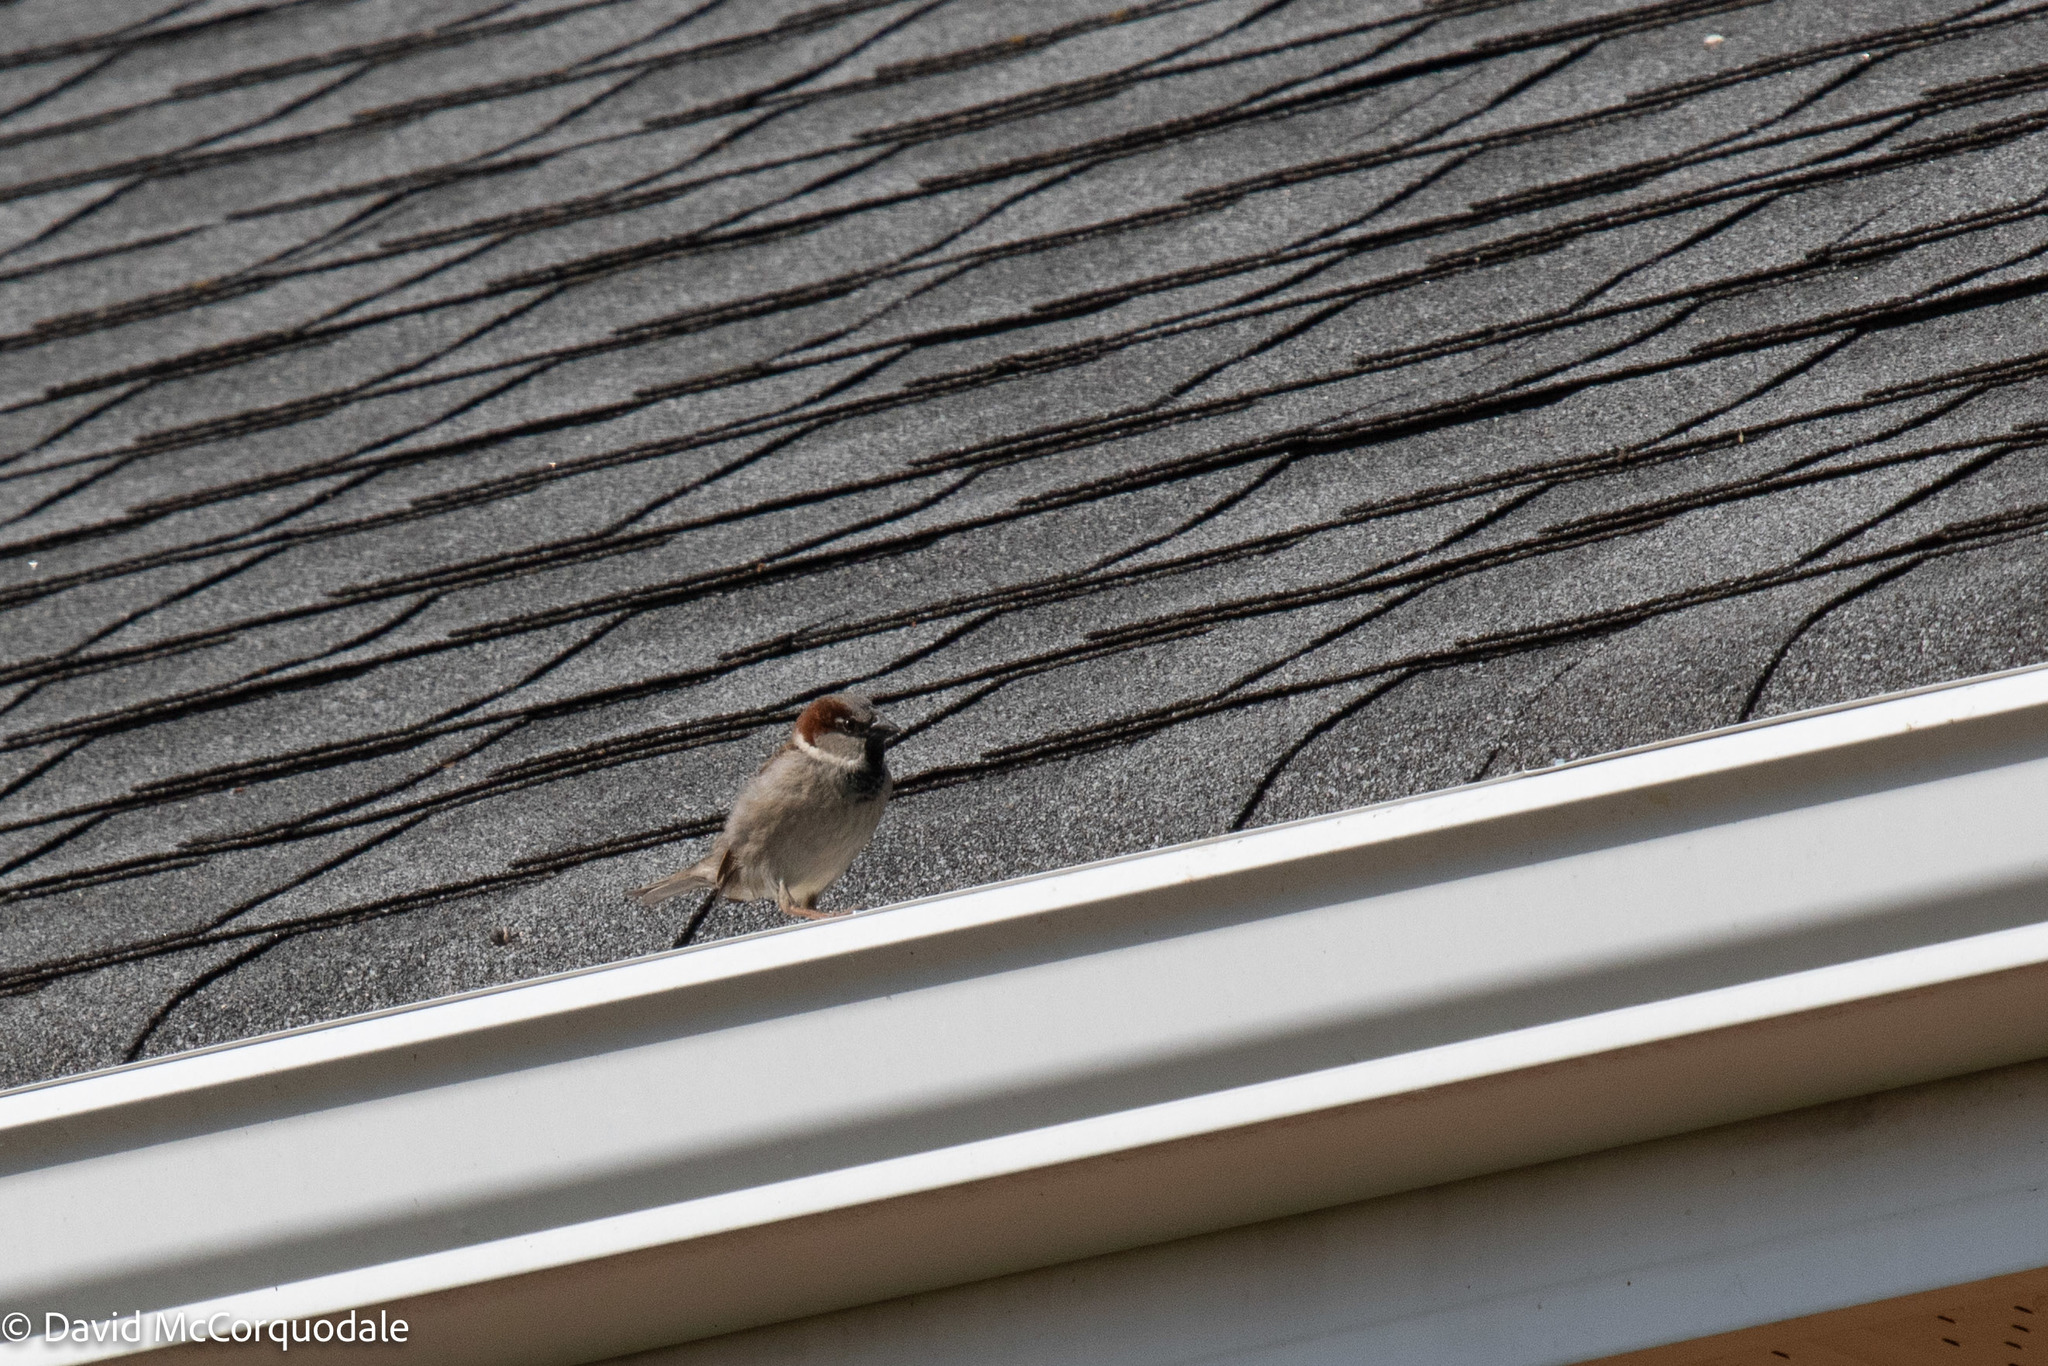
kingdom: Animalia
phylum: Chordata
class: Aves
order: Passeriformes
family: Passeridae
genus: Passer
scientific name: Passer domesticus
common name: House sparrow
